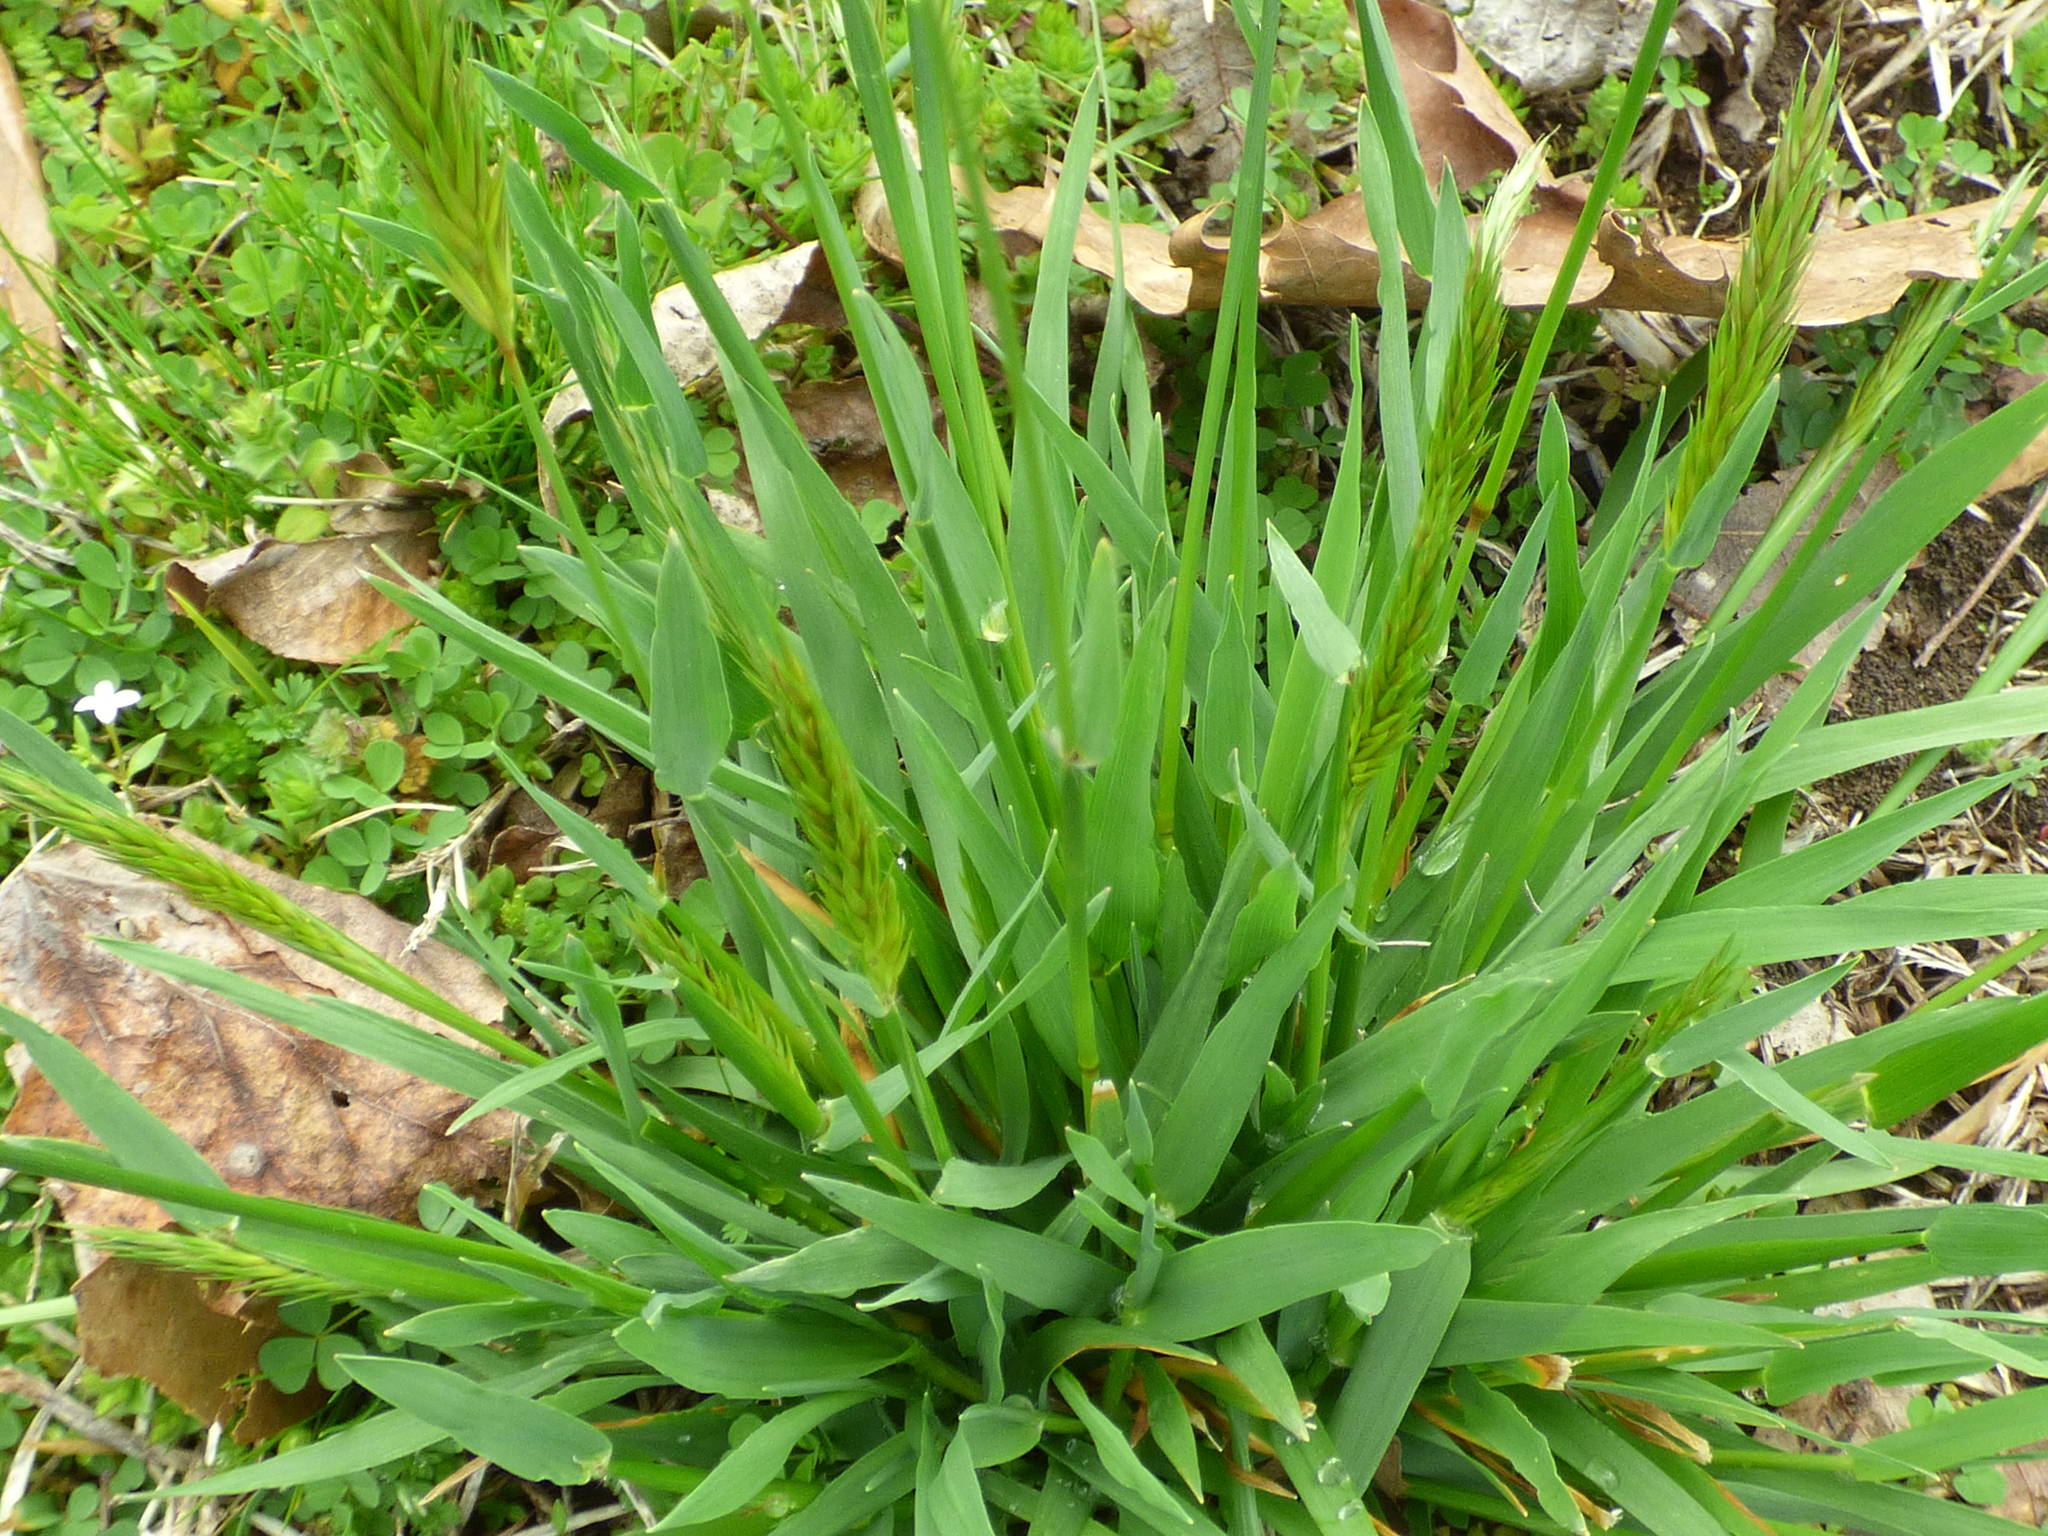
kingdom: Plantae
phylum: Tracheophyta
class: Liliopsida
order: Poales
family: Poaceae
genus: Anthoxanthum
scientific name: Anthoxanthum odoratum
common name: Sweet vernalgrass
